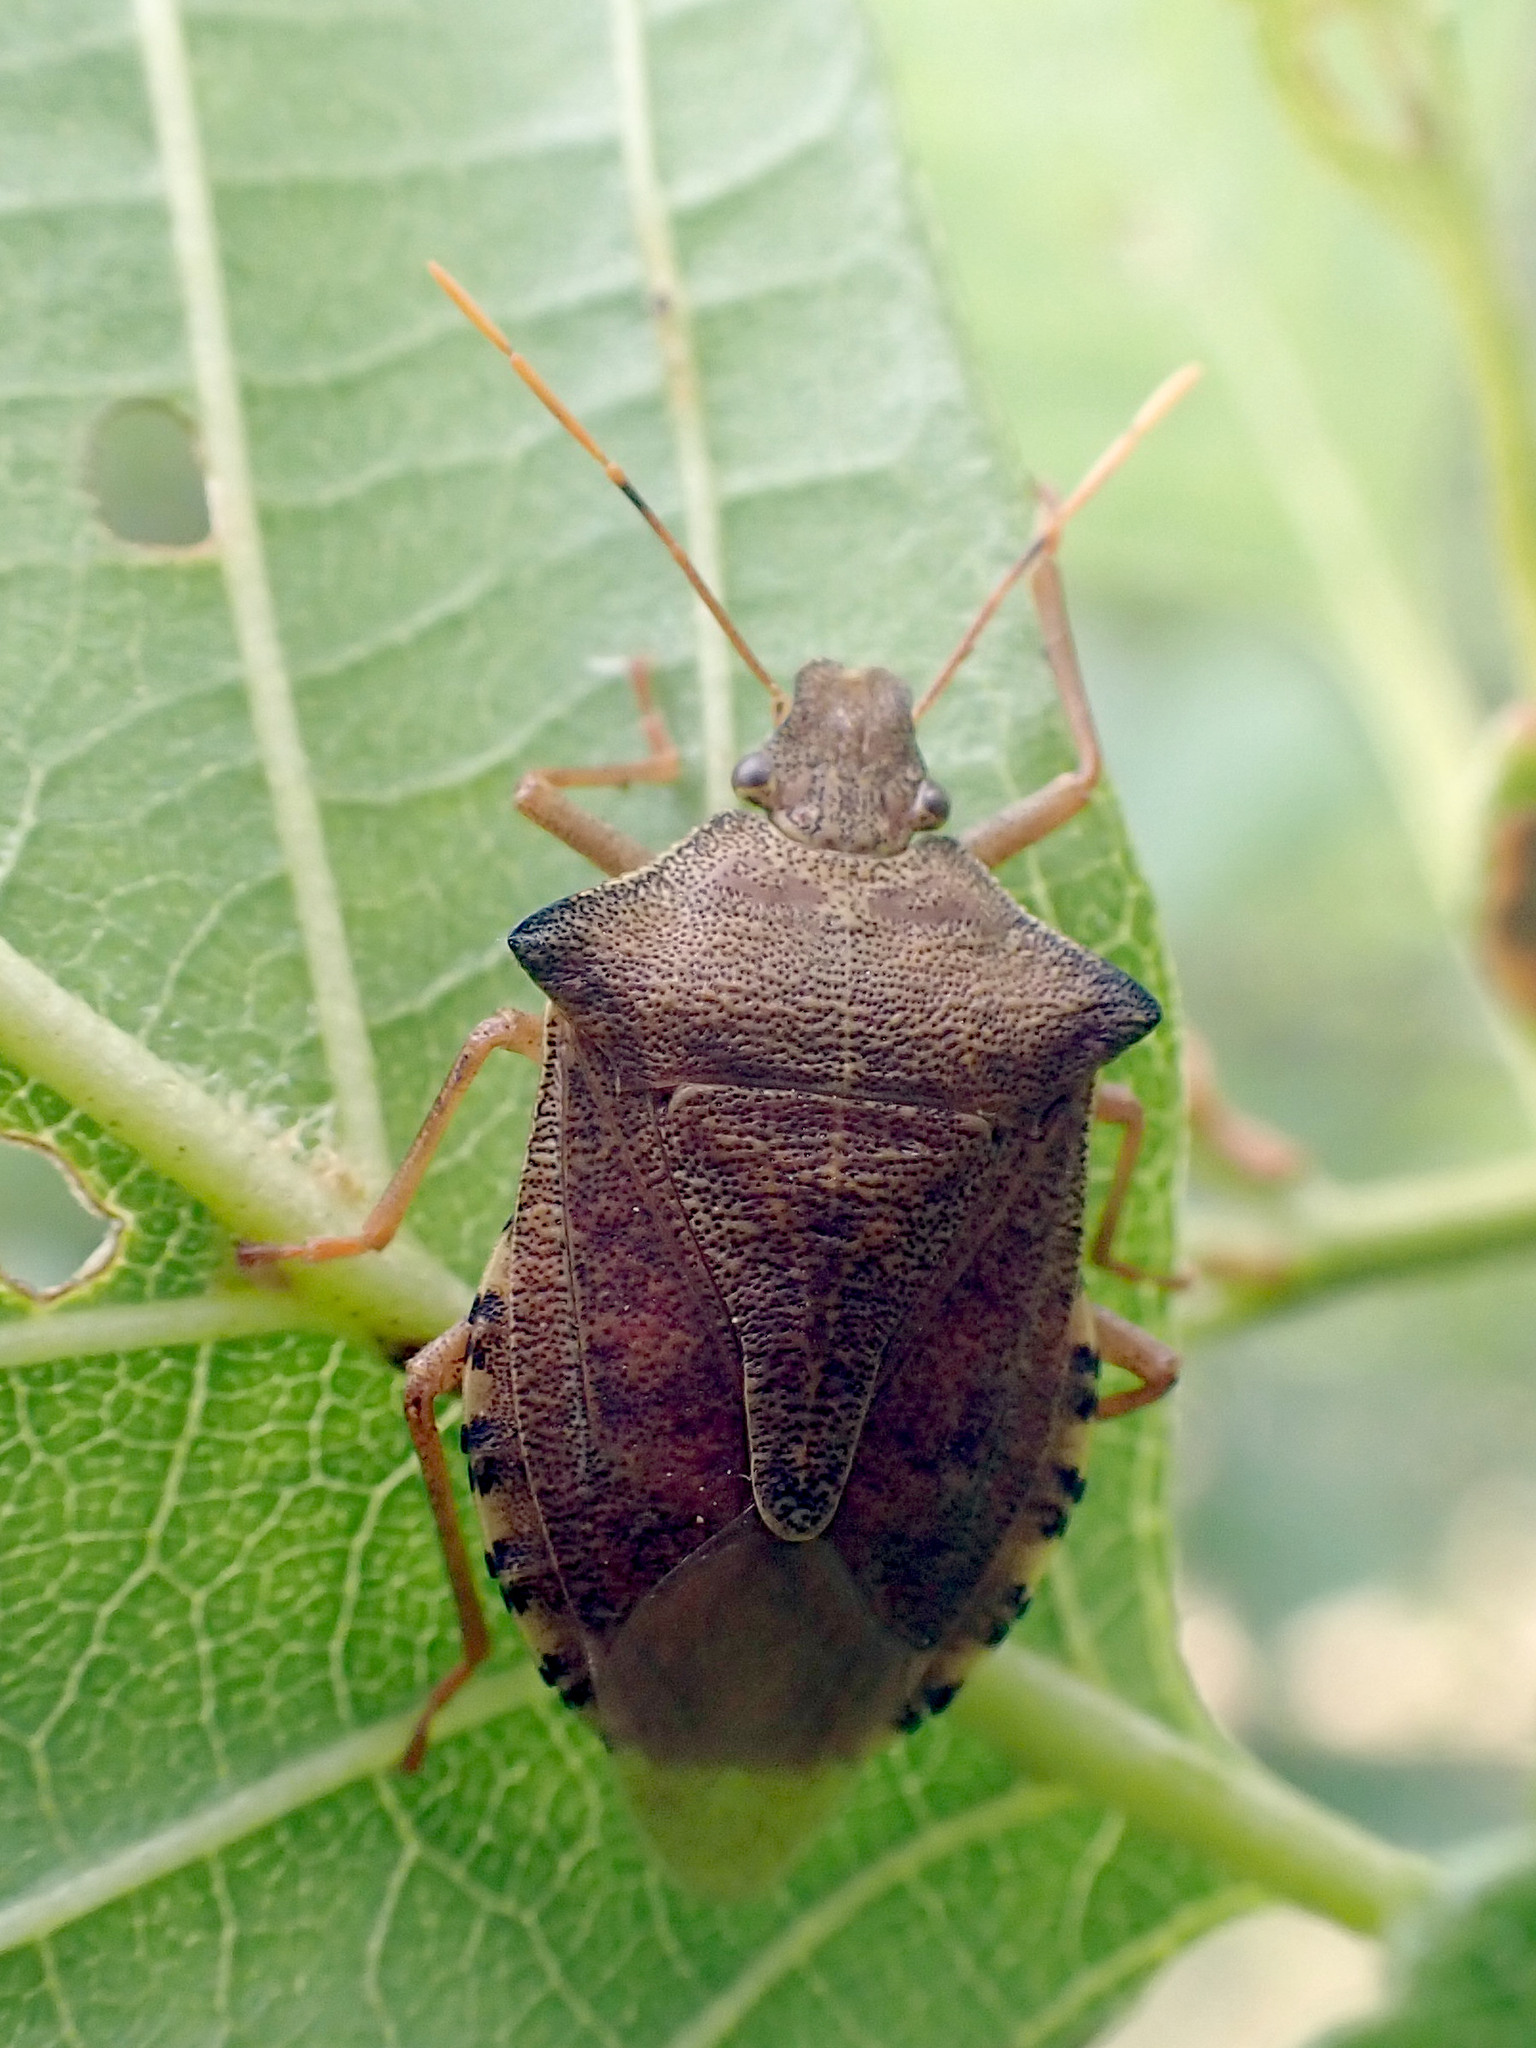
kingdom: Animalia
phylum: Arthropoda
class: Insecta
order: Hemiptera
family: Pentatomidae
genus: Arma
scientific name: Arma custos
